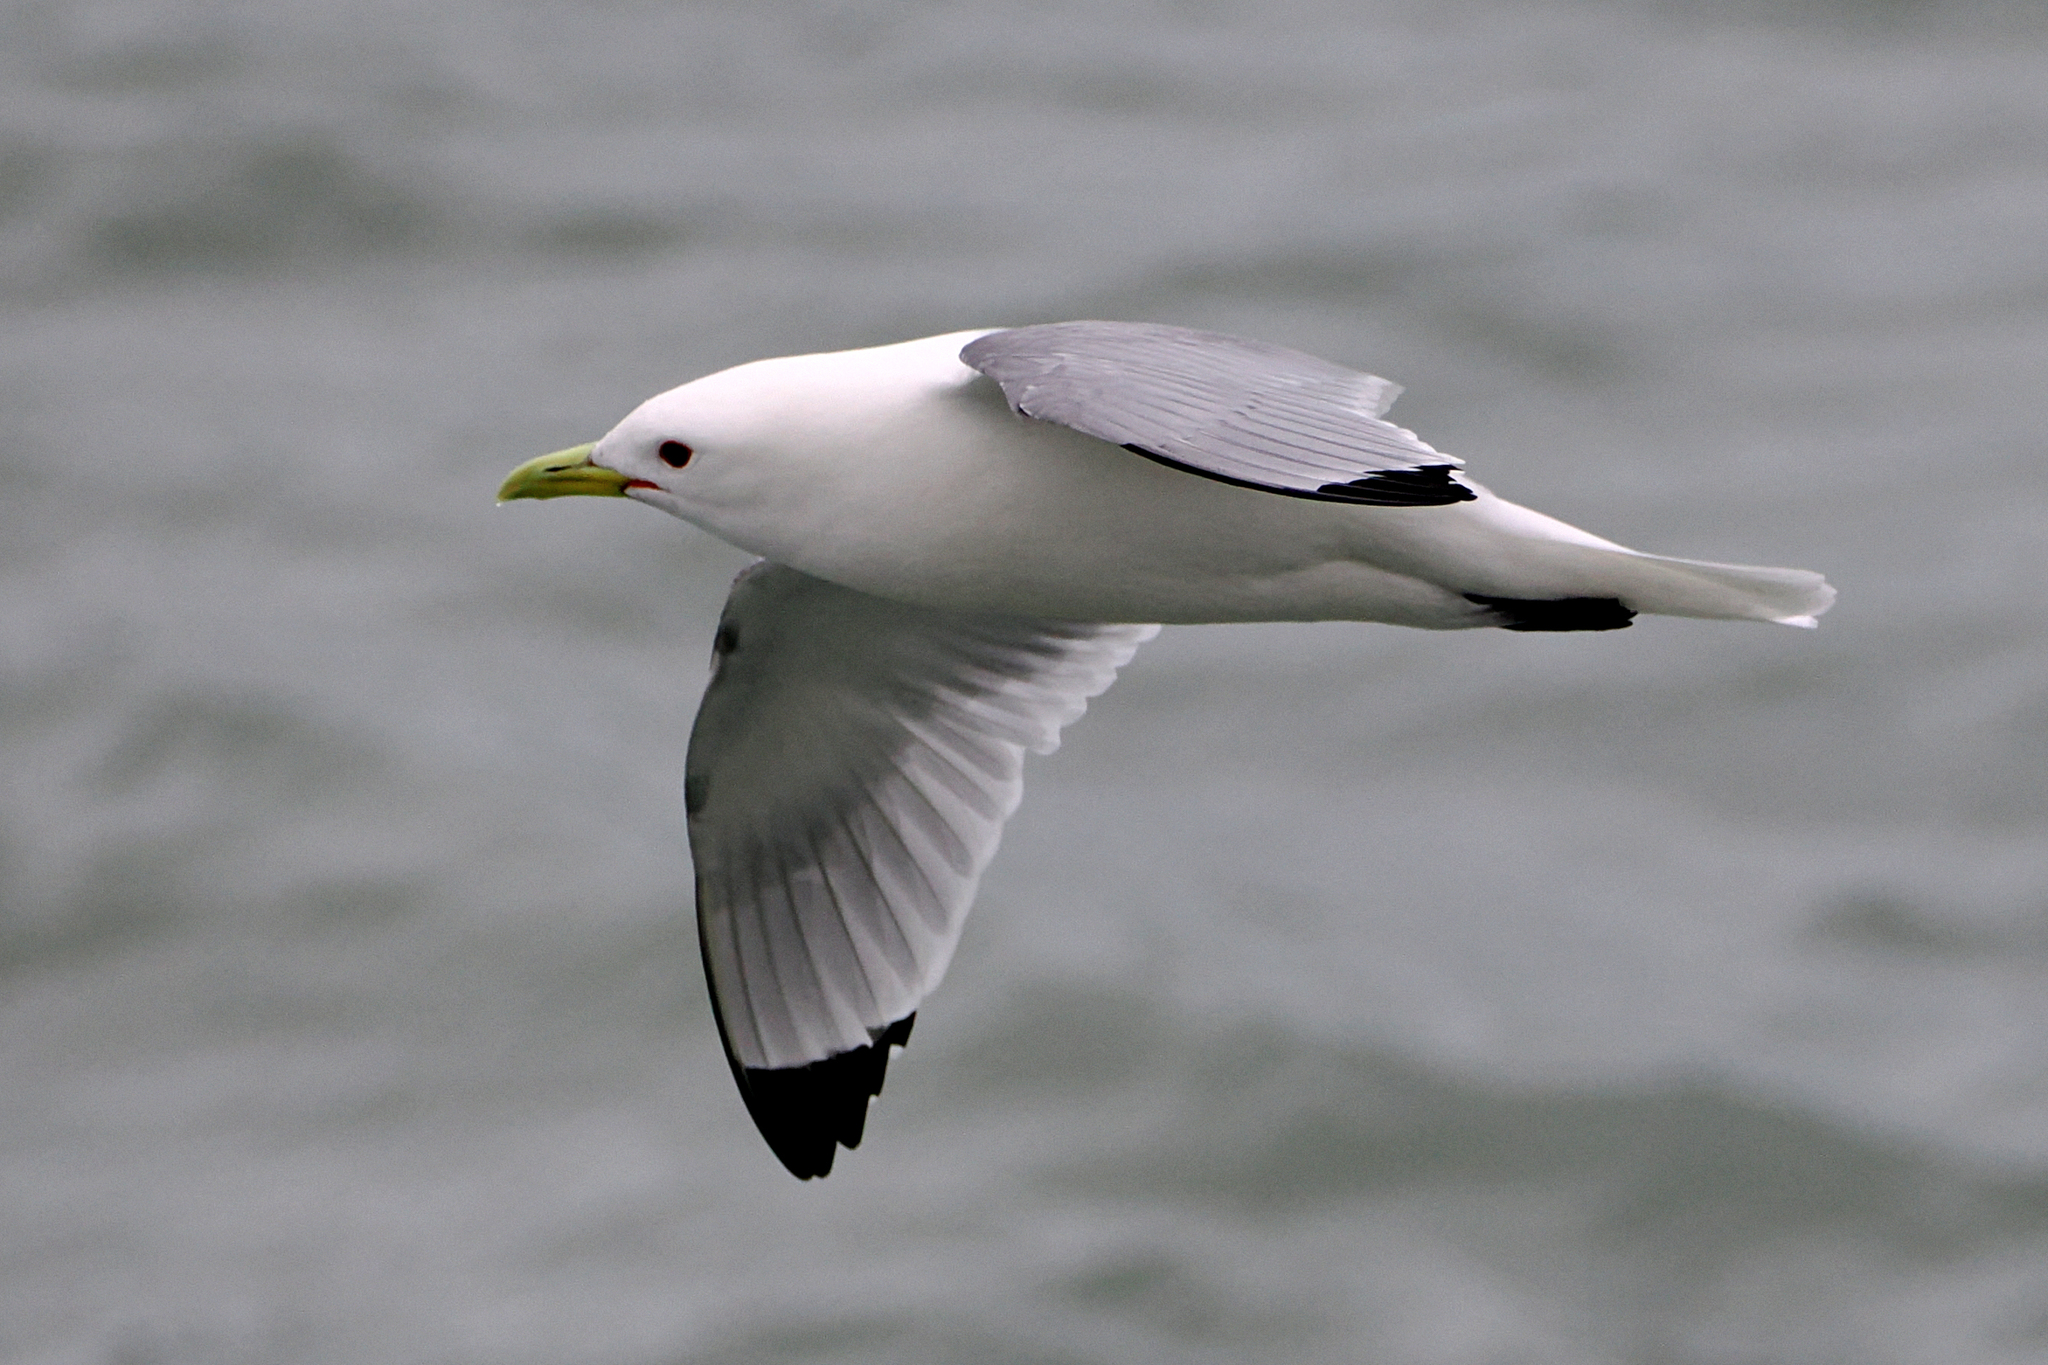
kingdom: Animalia
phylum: Chordata
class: Aves
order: Charadriiformes
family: Laridae
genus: Rissa
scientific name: Rissa tridactyla
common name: Black-legged kittiwake
